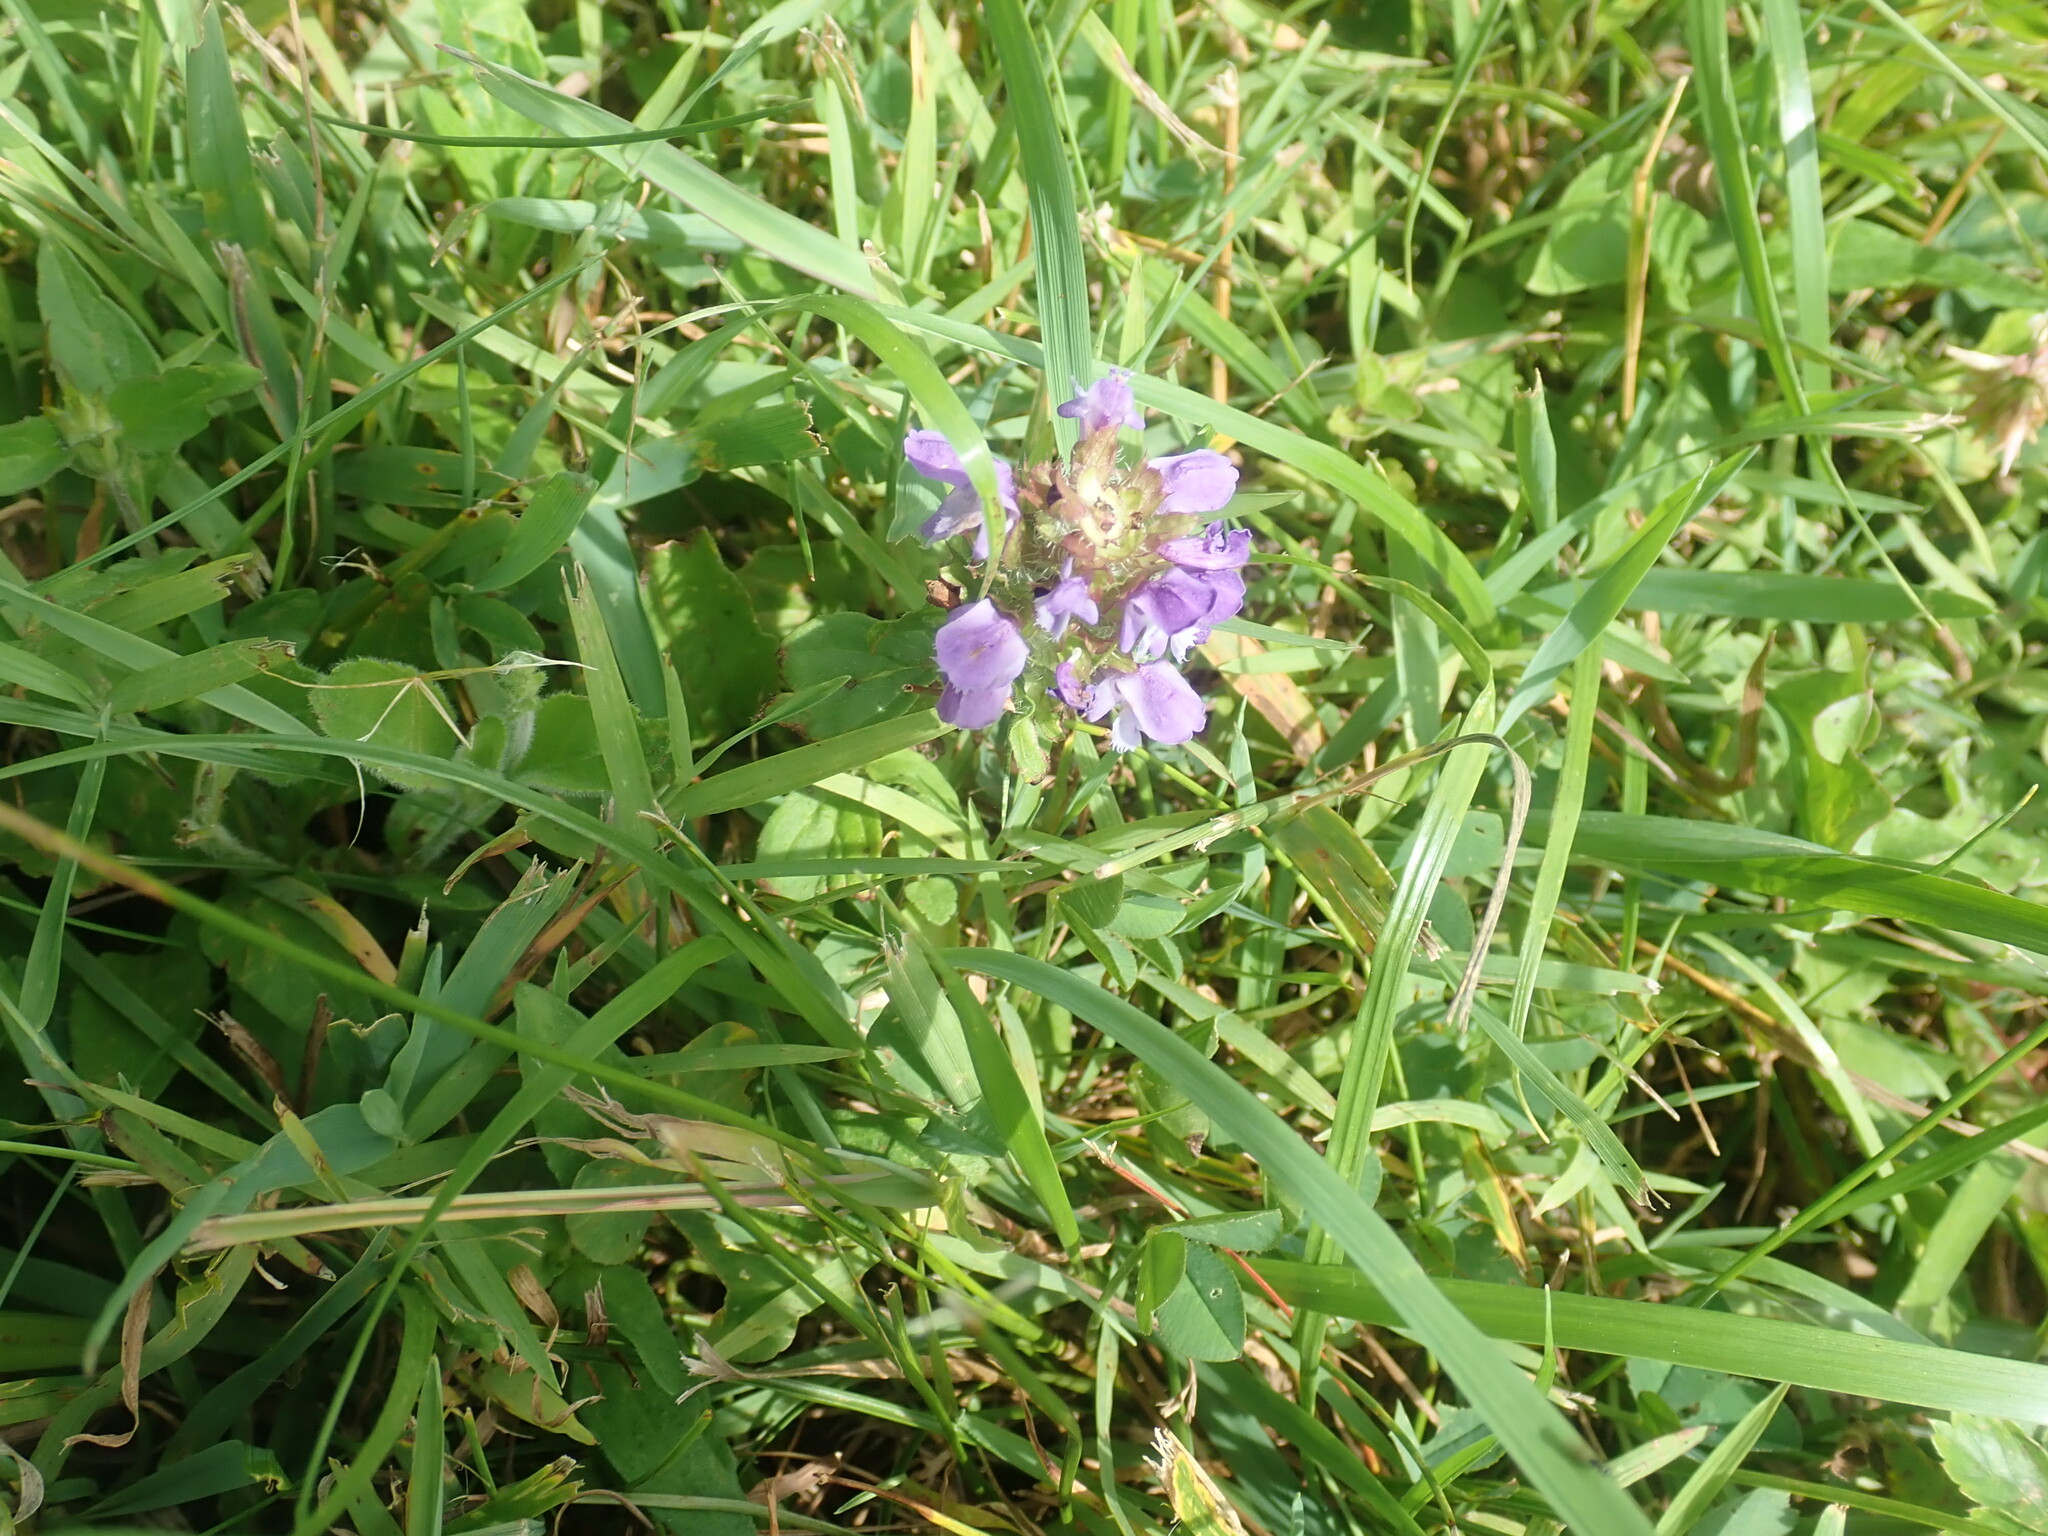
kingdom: Plantae
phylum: Tracheophyta
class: Magnoliopsida
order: Lamiales
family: Lamiaceae
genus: Prunella
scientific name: Prunella vulgaris
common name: Heal-all
